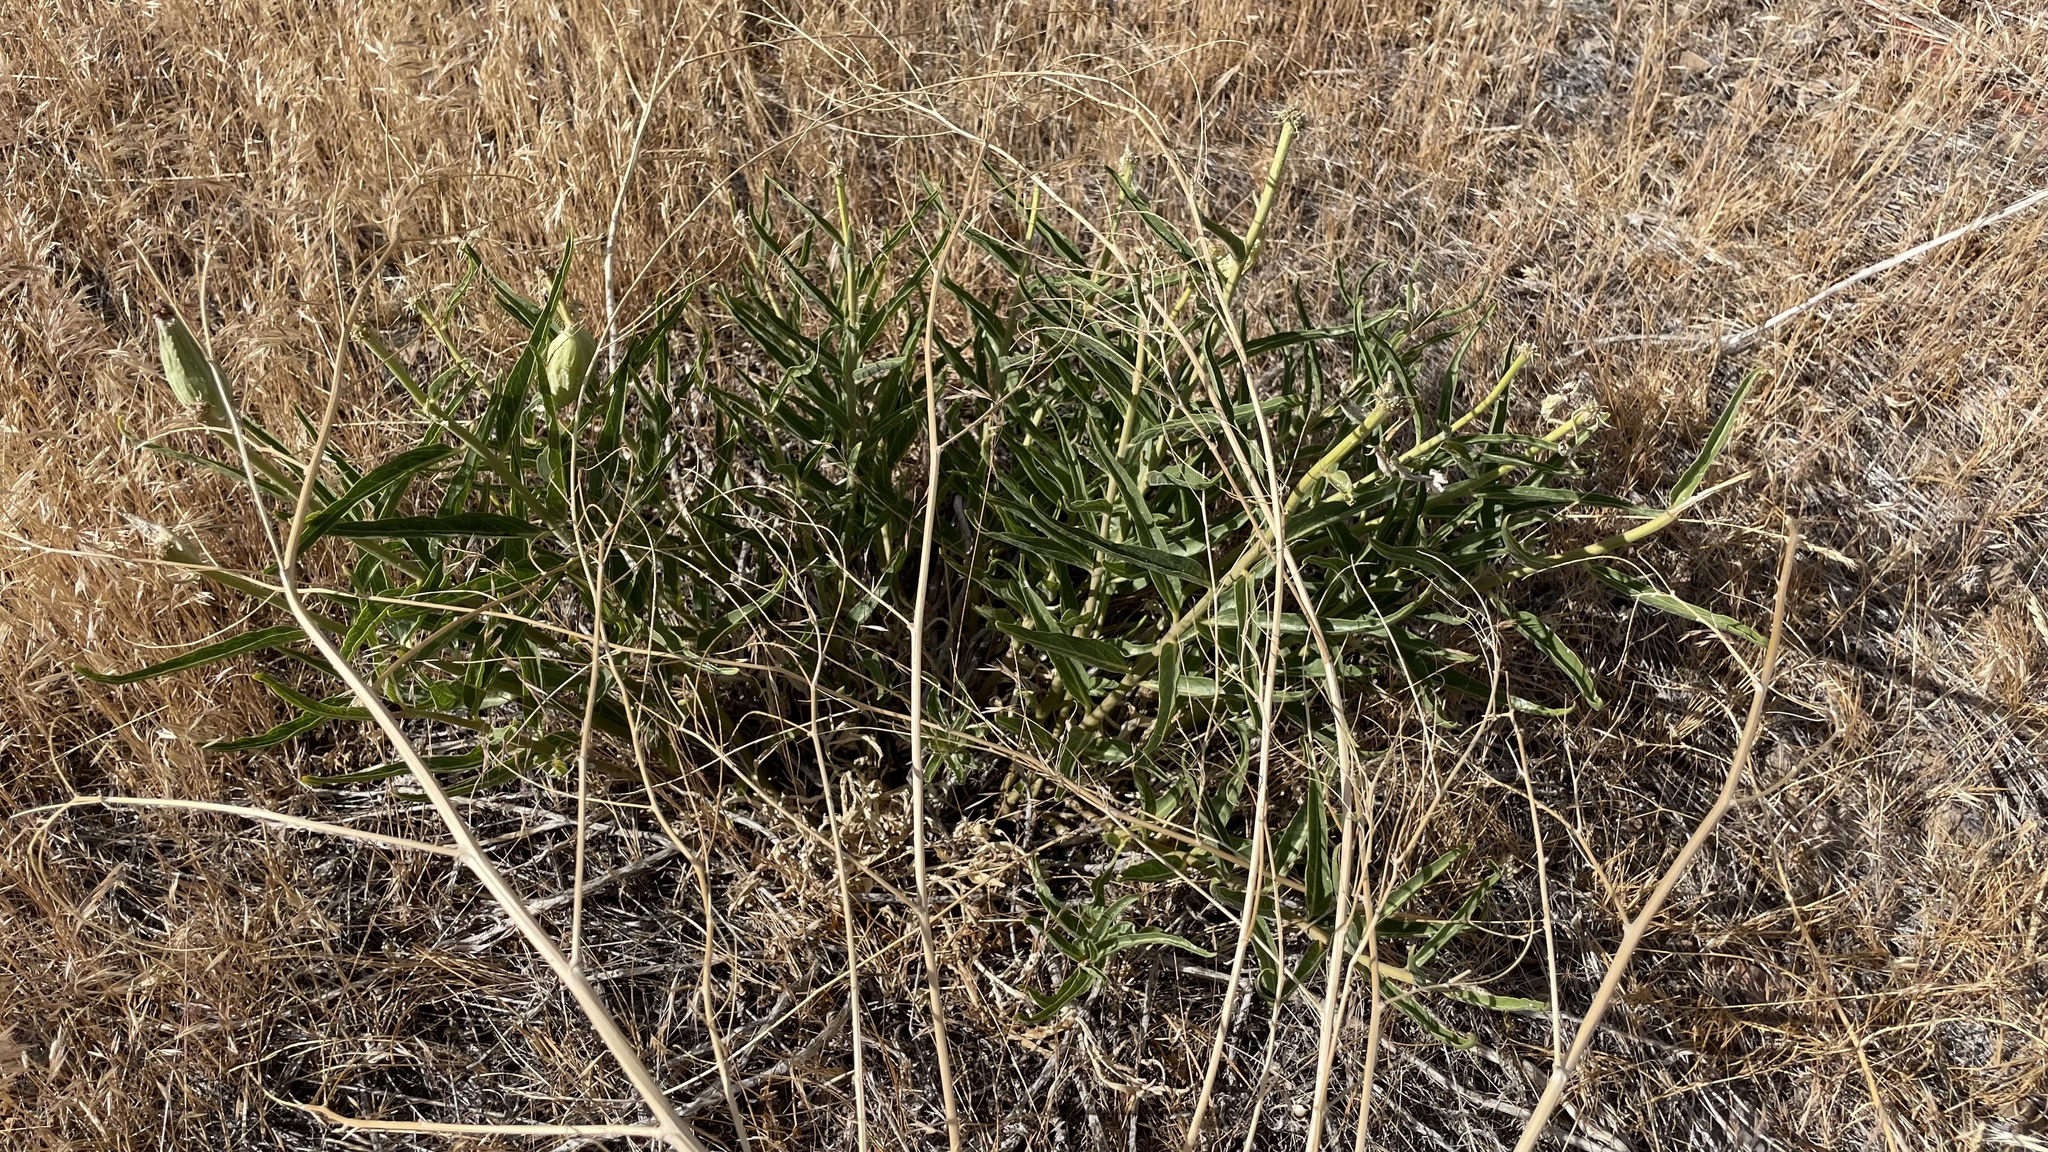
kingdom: Plantae
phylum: Tracheophyta
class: Magnoliopsida
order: Gentianales
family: Apocynaceae
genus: Asclepias
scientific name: Asclepias asperula
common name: Antelope horns
